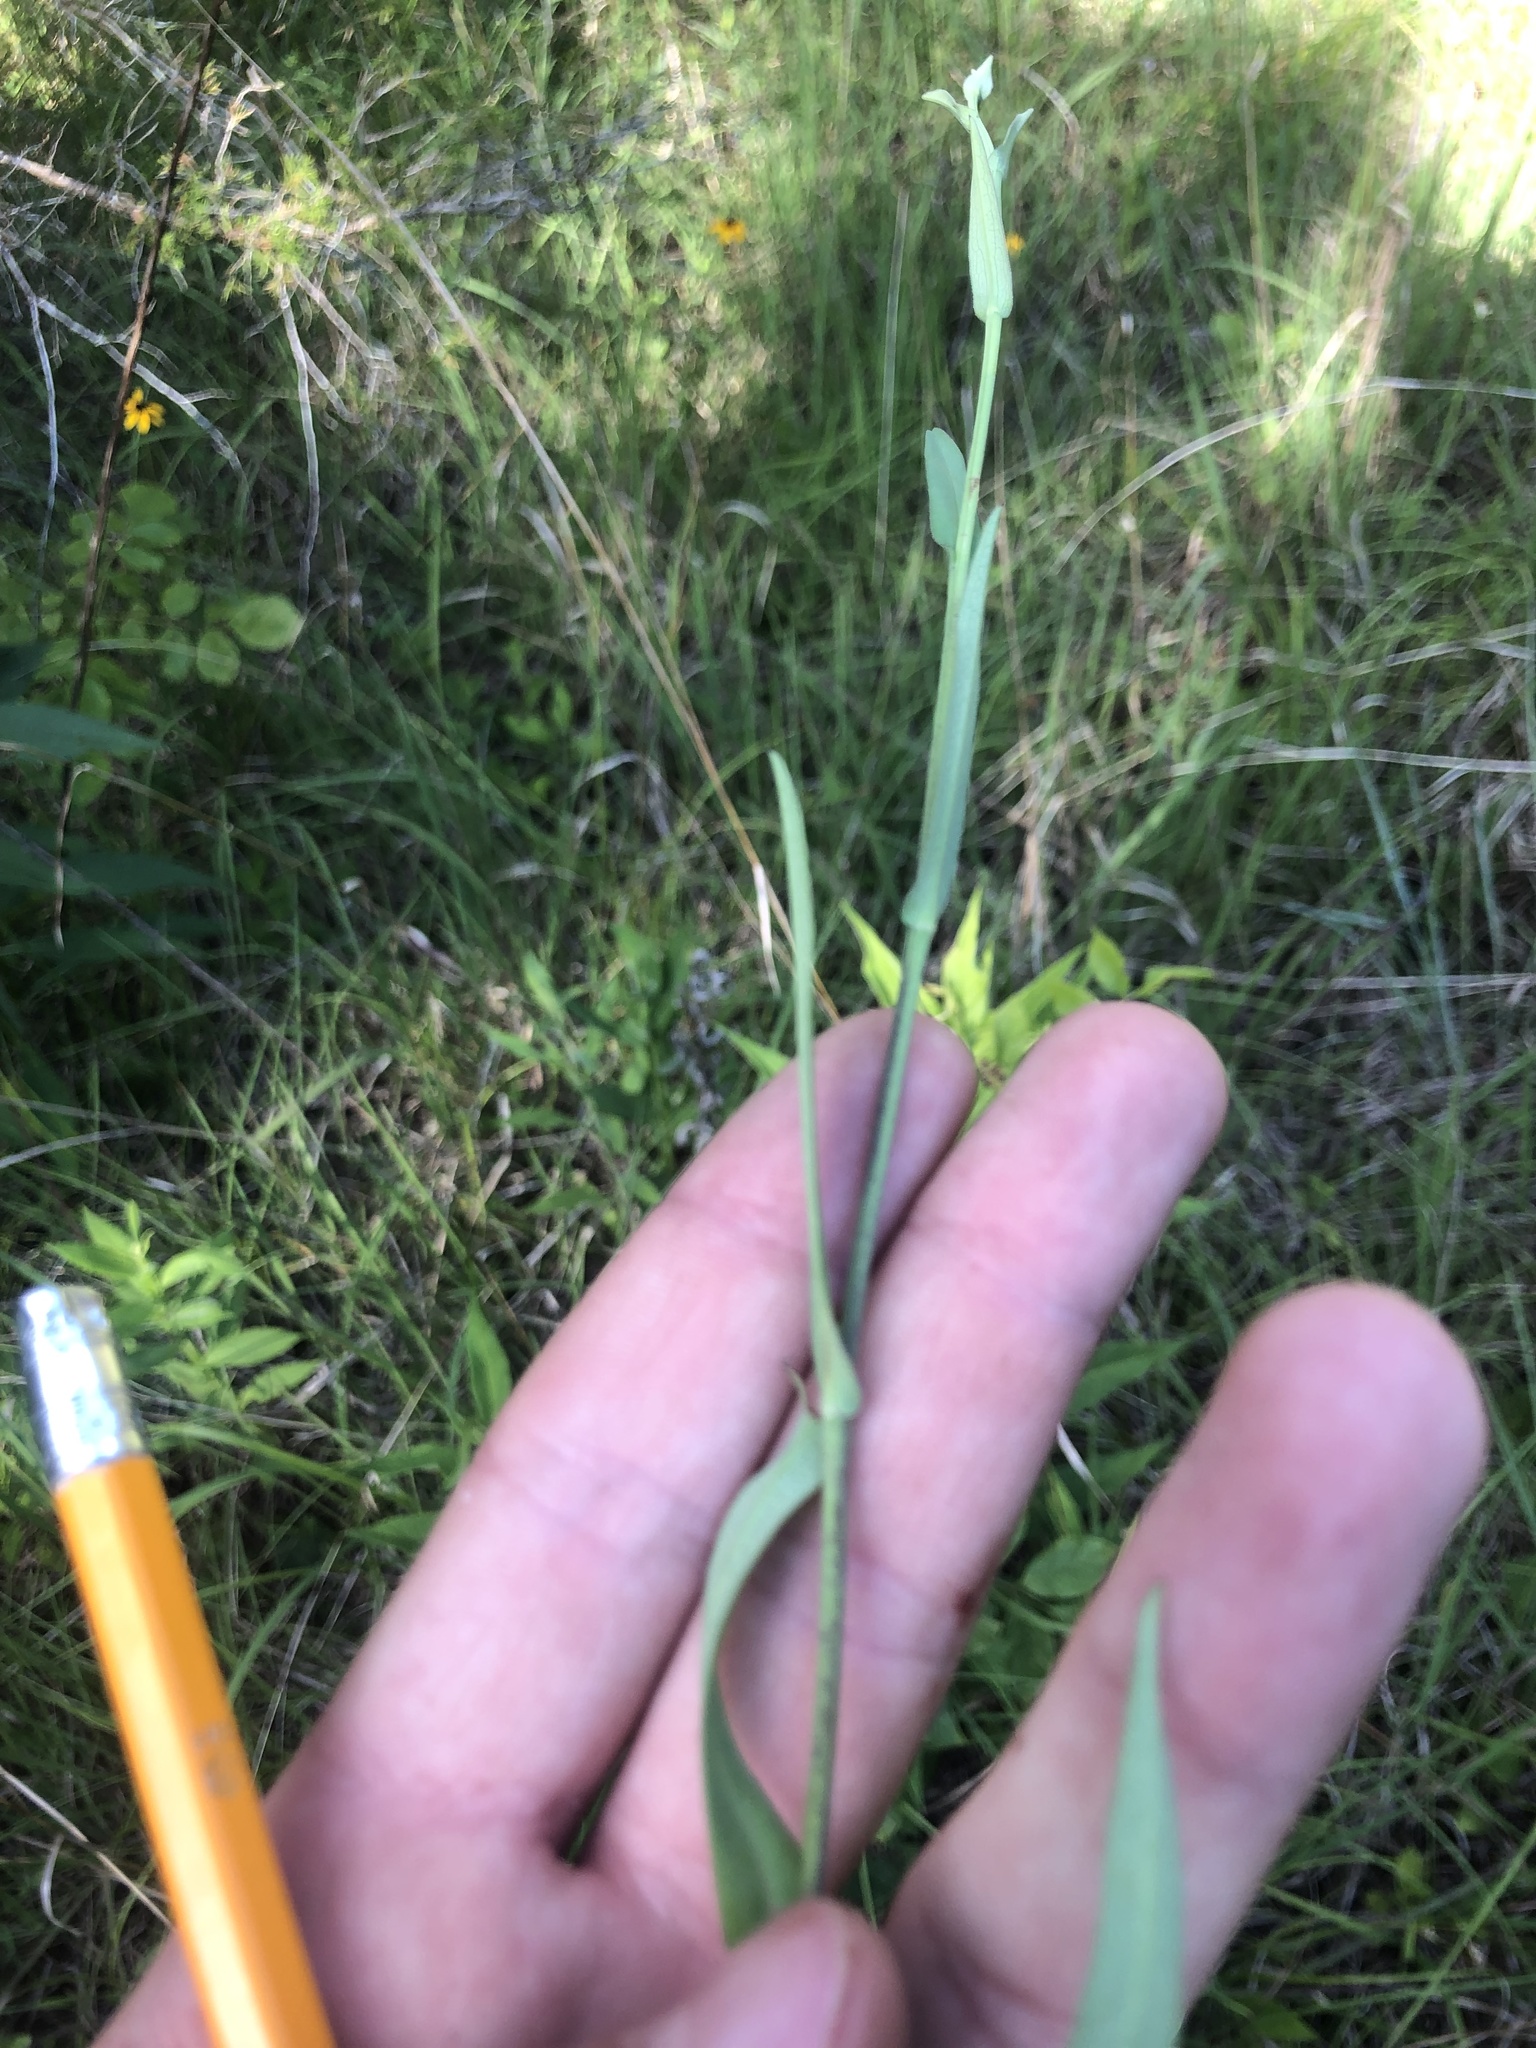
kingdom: Plantae
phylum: Tracheophyta
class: Magnoliopsida
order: Asterales
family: Asteraceae
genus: Symphyotrichum
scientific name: Symphyotrichum laeve
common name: Glaucous aster
